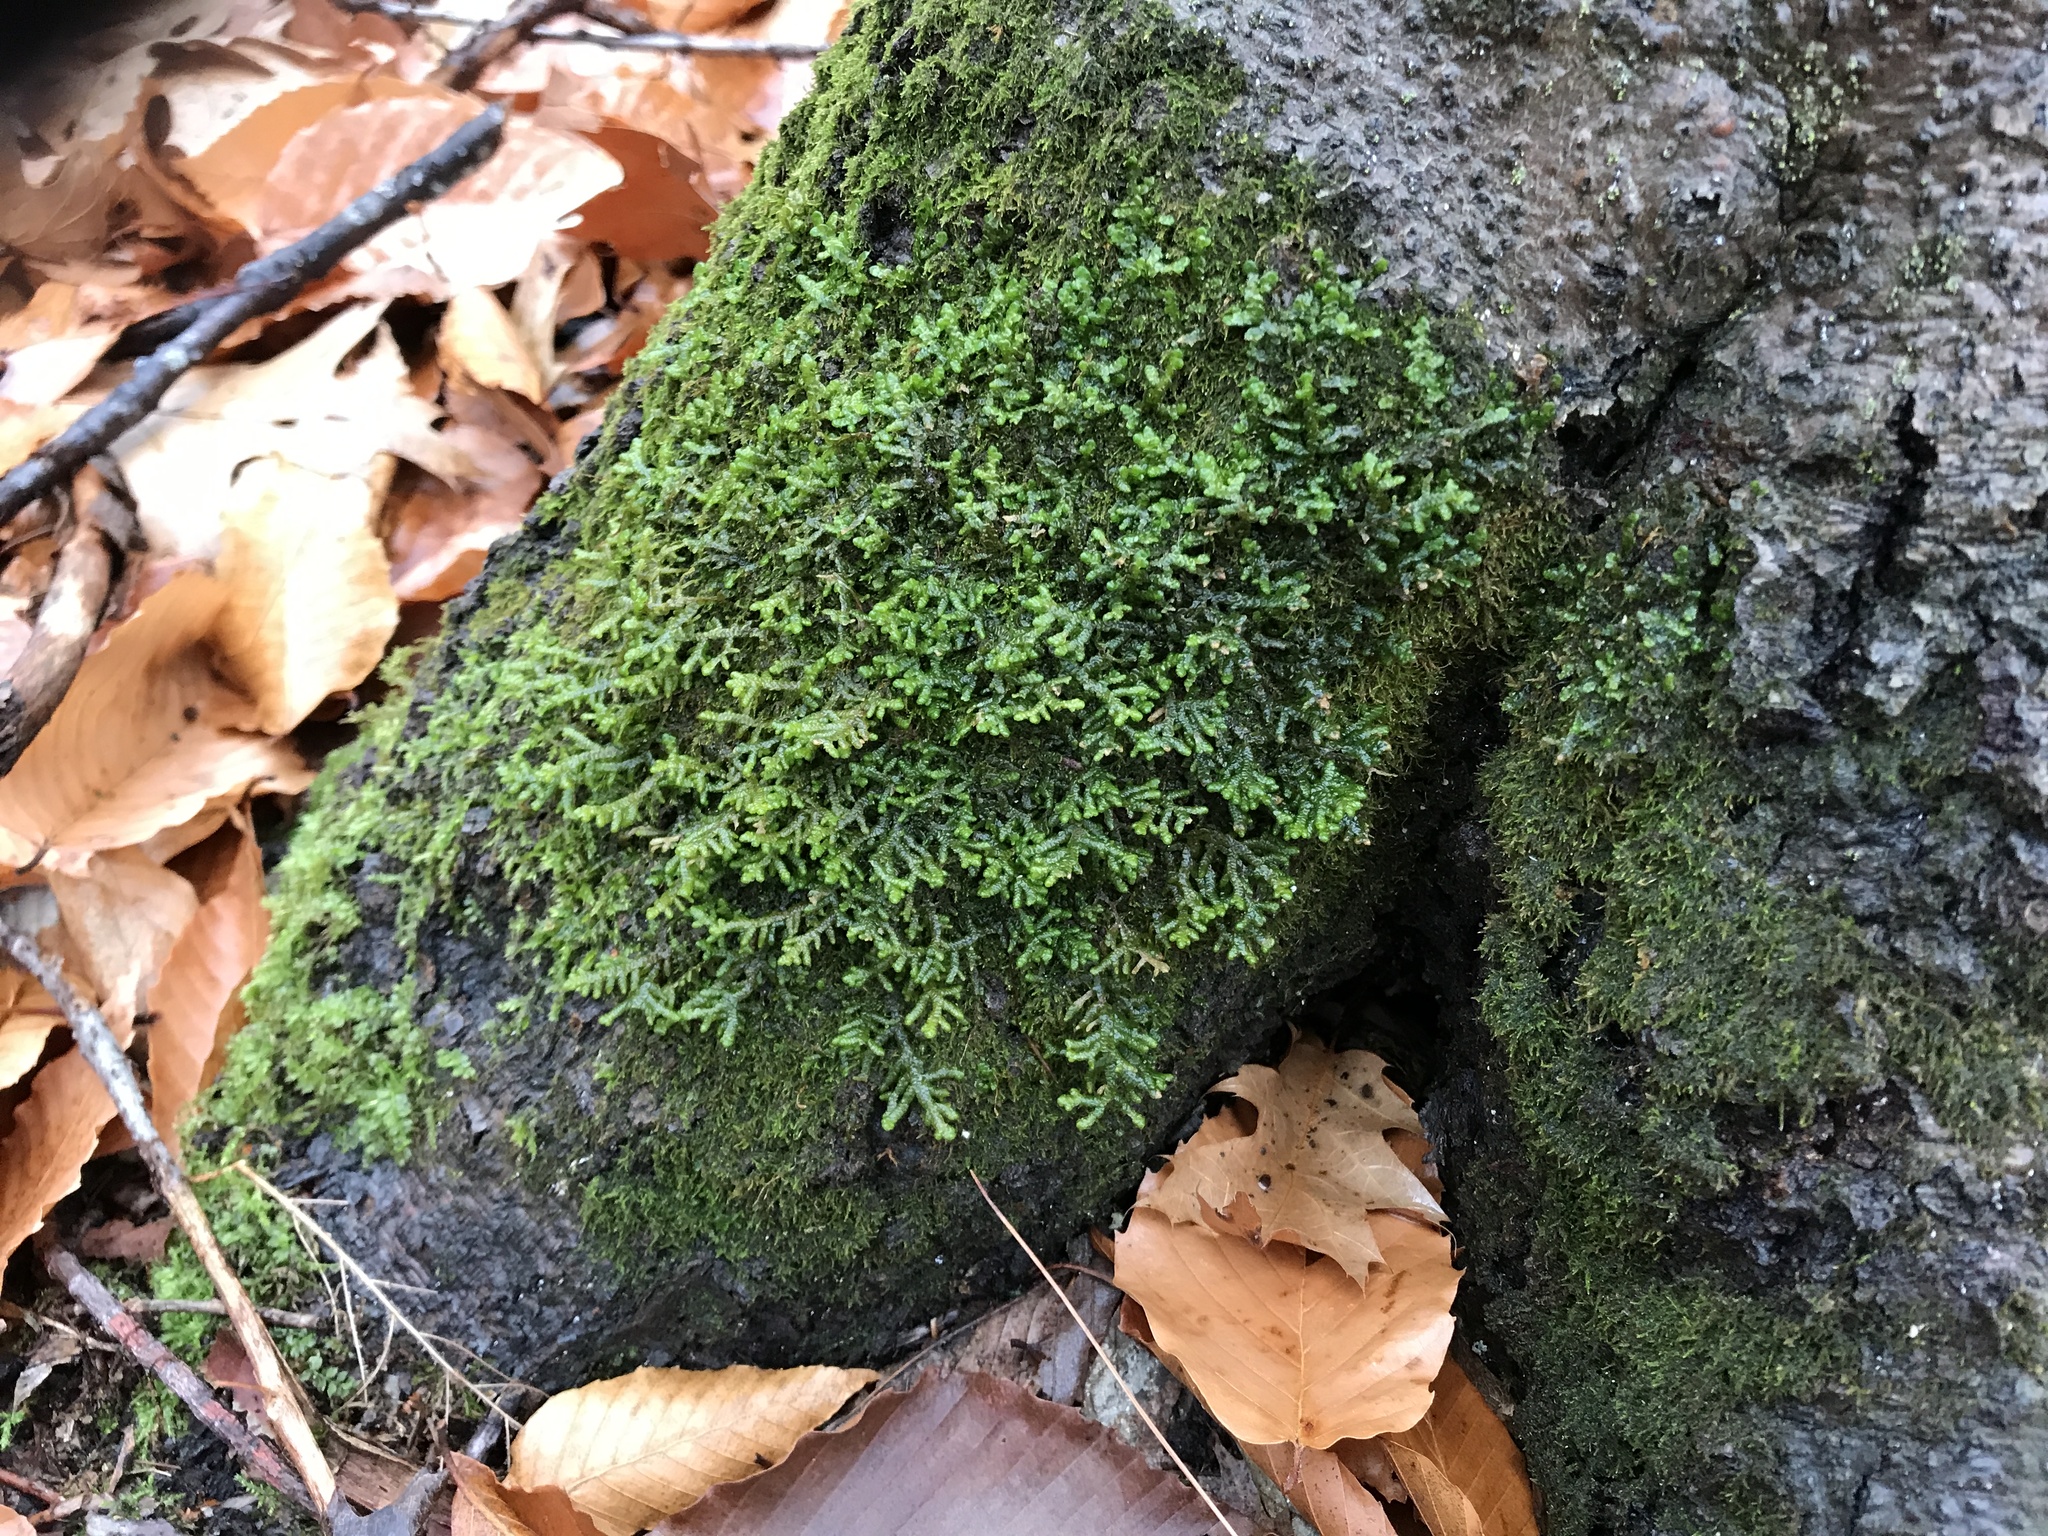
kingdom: Plantae
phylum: Marchantiophyta
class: Jungermanniopsida
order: Porellales
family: Porellaceae
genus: Porella
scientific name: Porella platyphylla
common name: Wall scalewort
